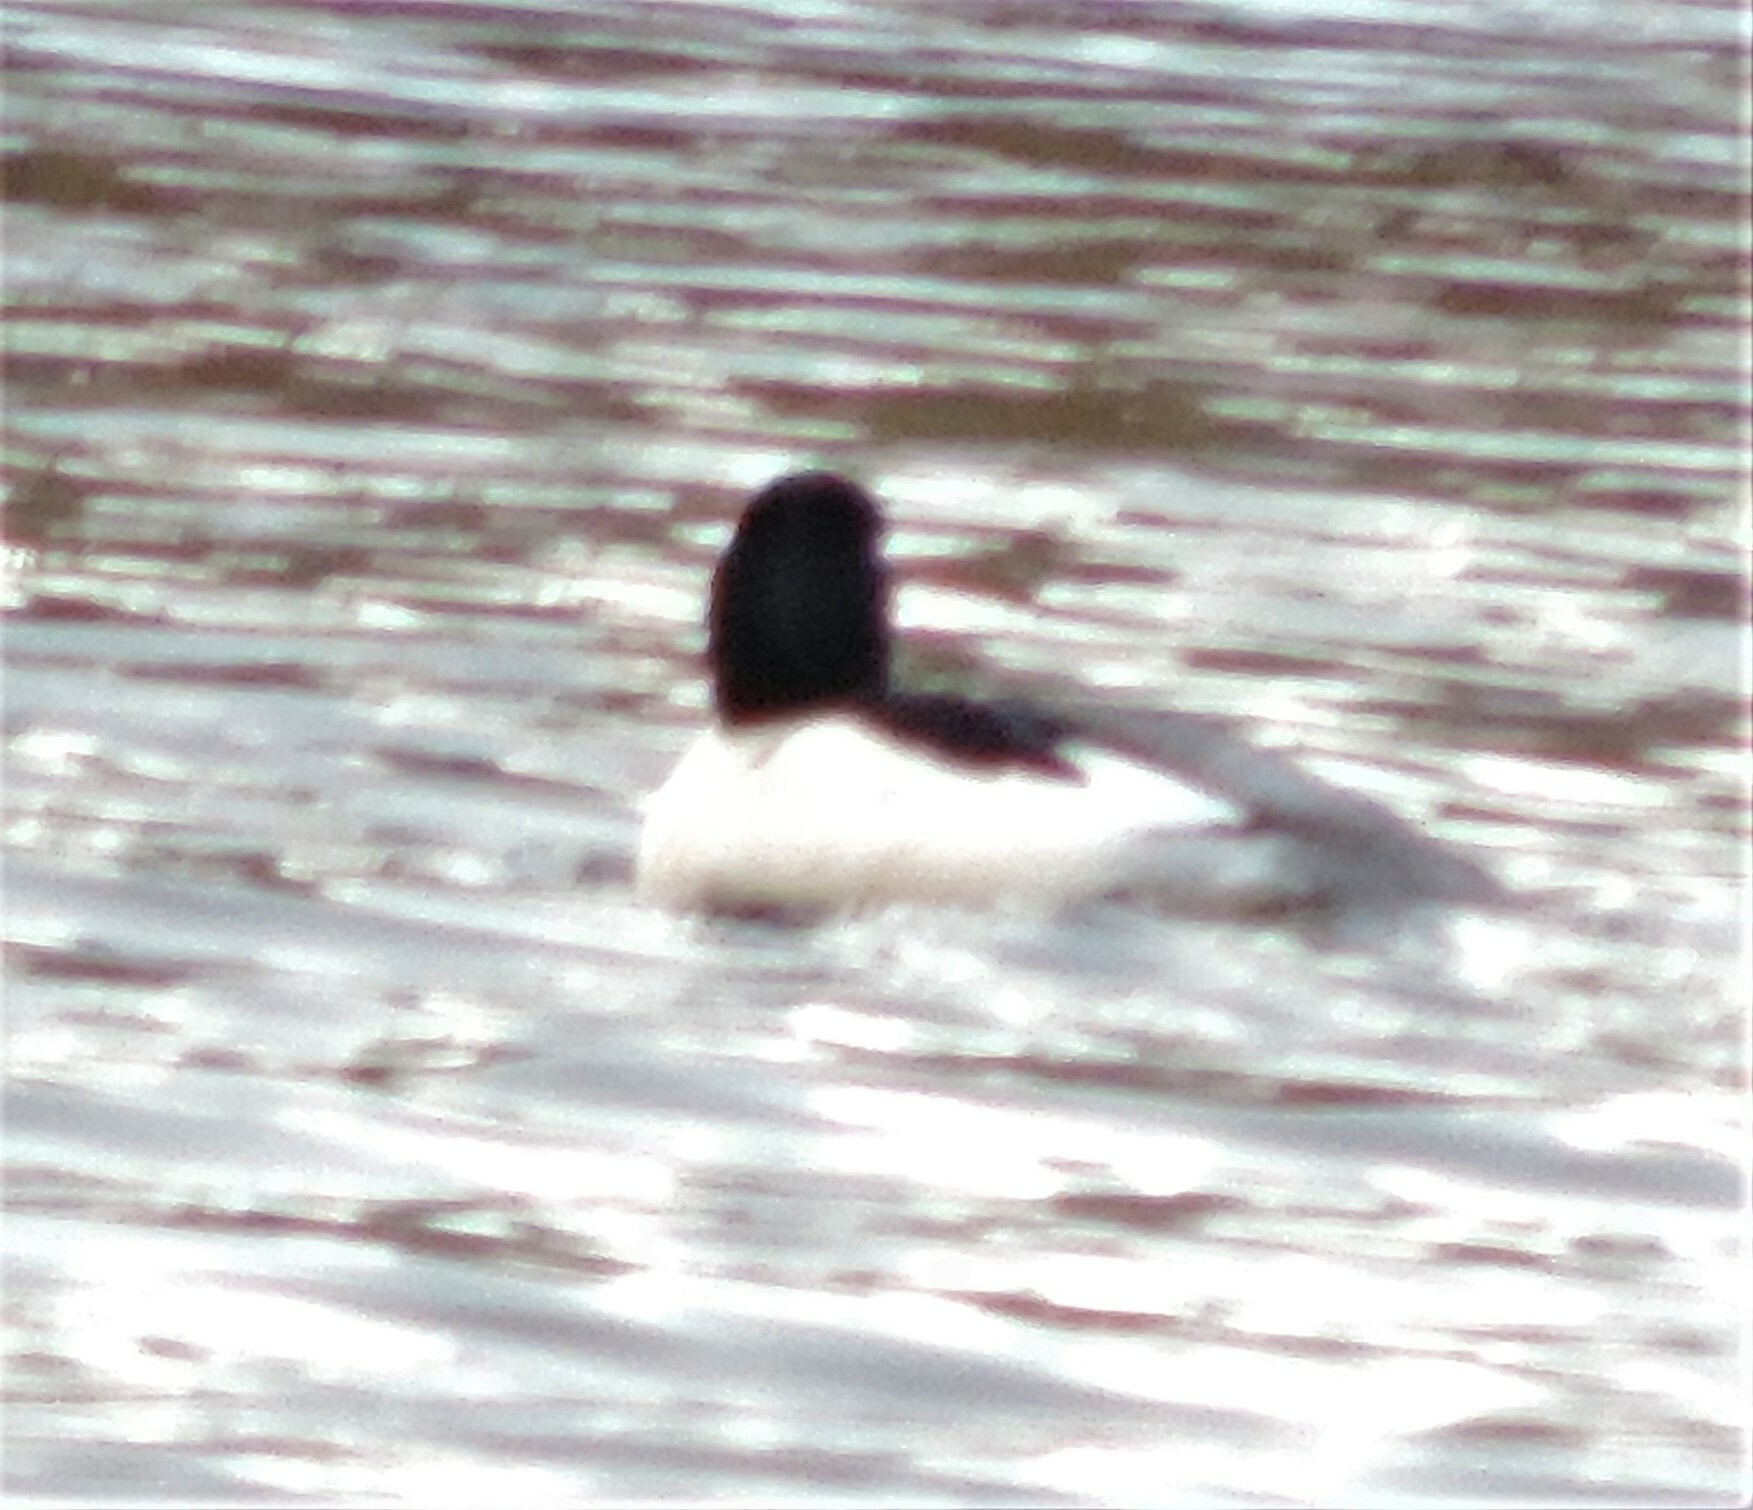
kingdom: Animalia
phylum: Chordata
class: Aves
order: Anseriformes
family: Anatidae
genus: Mergus
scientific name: Mergus merganser
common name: Common merganser
